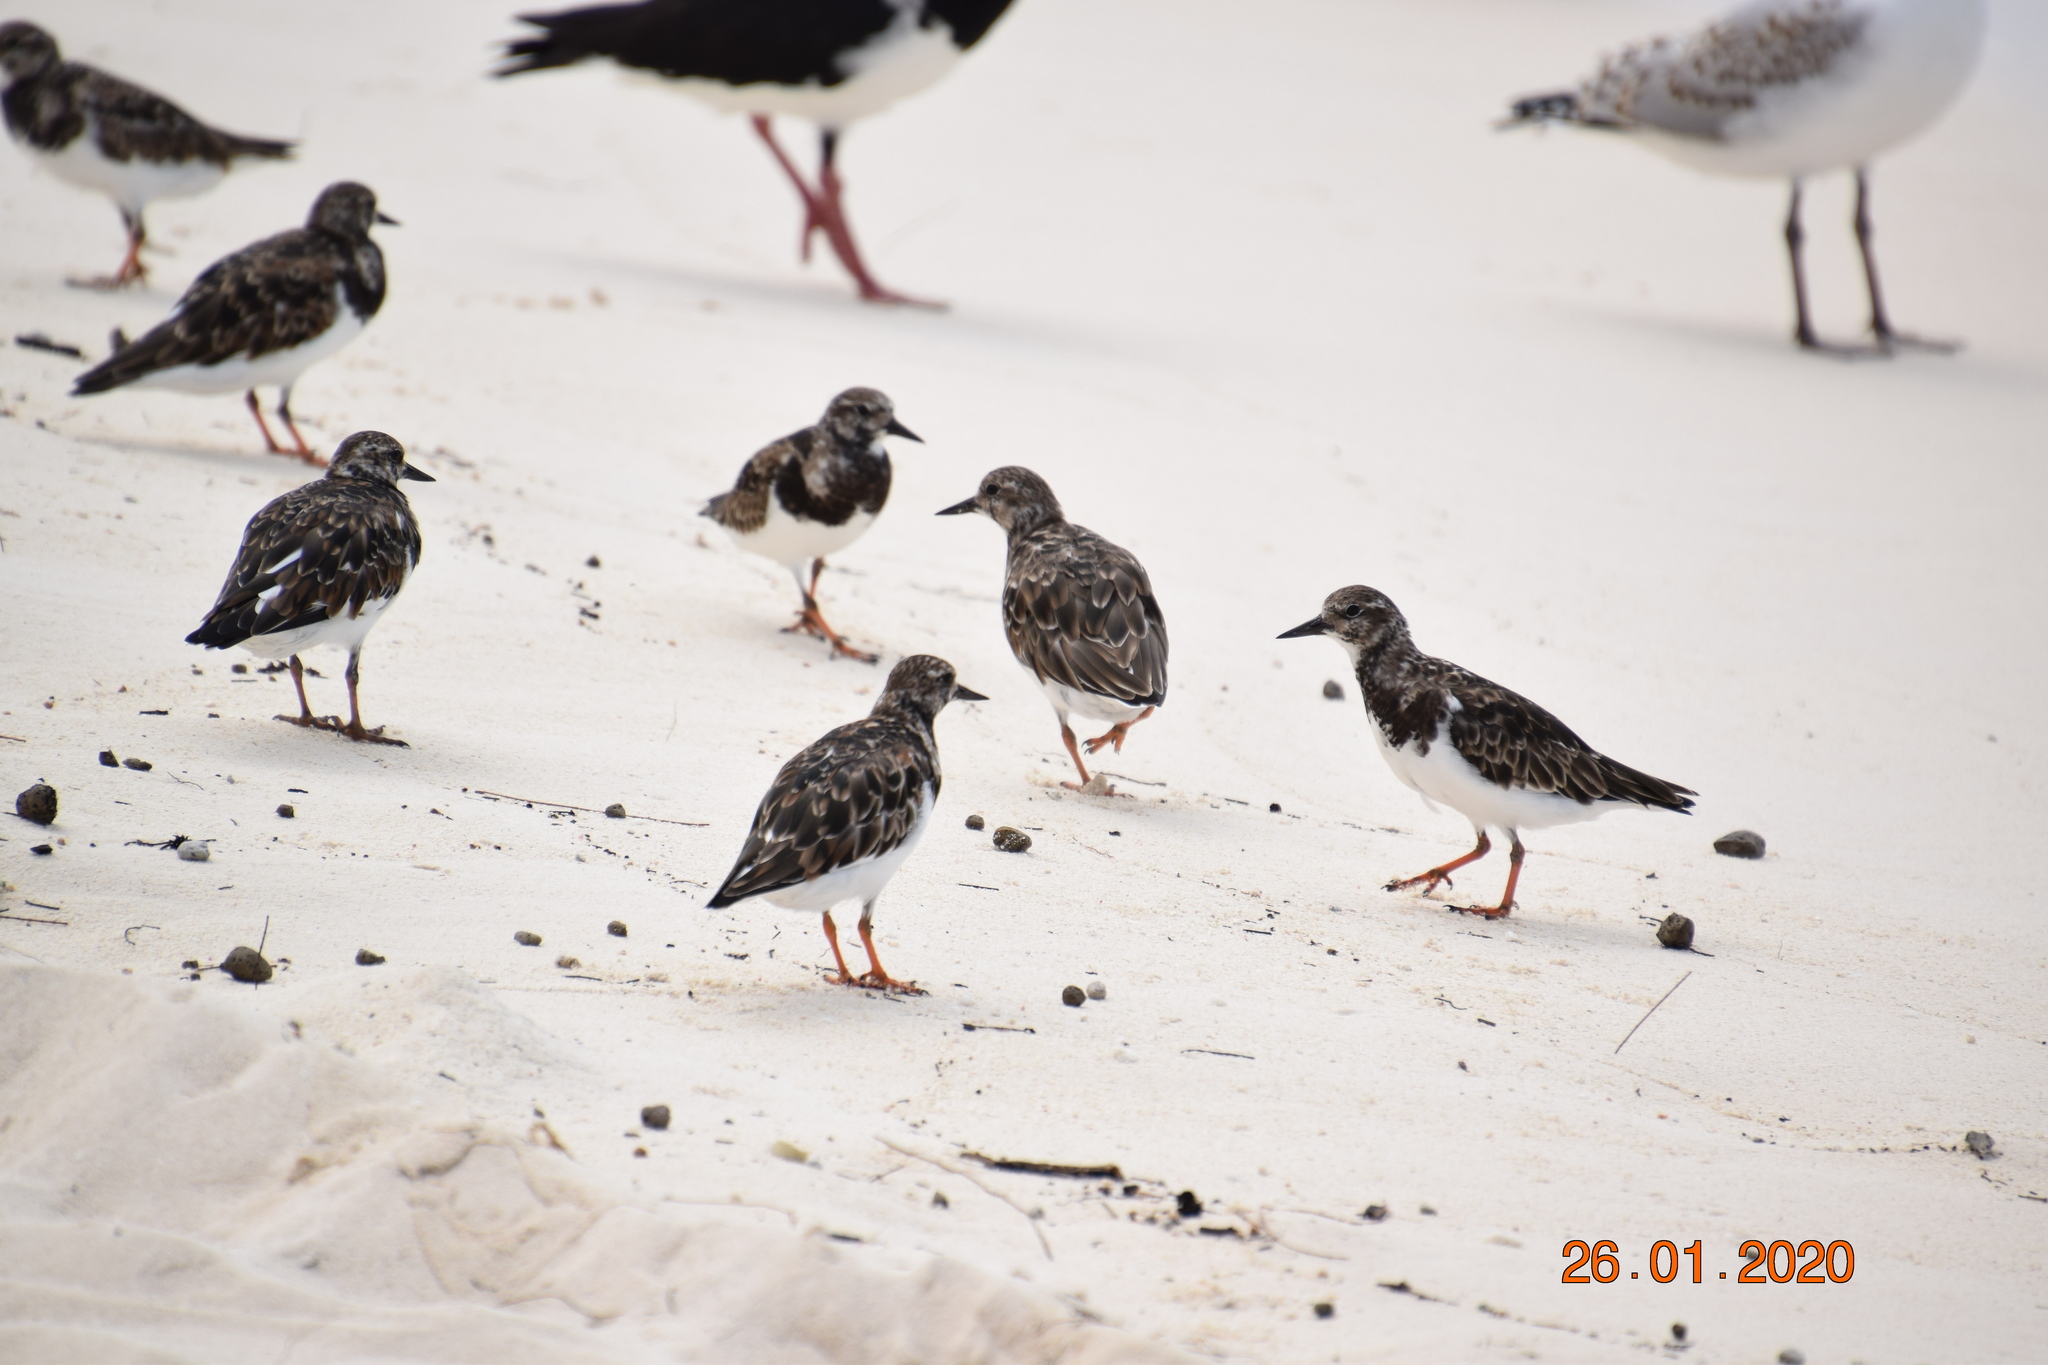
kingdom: Animalia
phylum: Chordata
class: Aves
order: Charadriiformes
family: Scolopacidae
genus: Arenaria
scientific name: Arenaria interpres
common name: Ruddy turnstone
